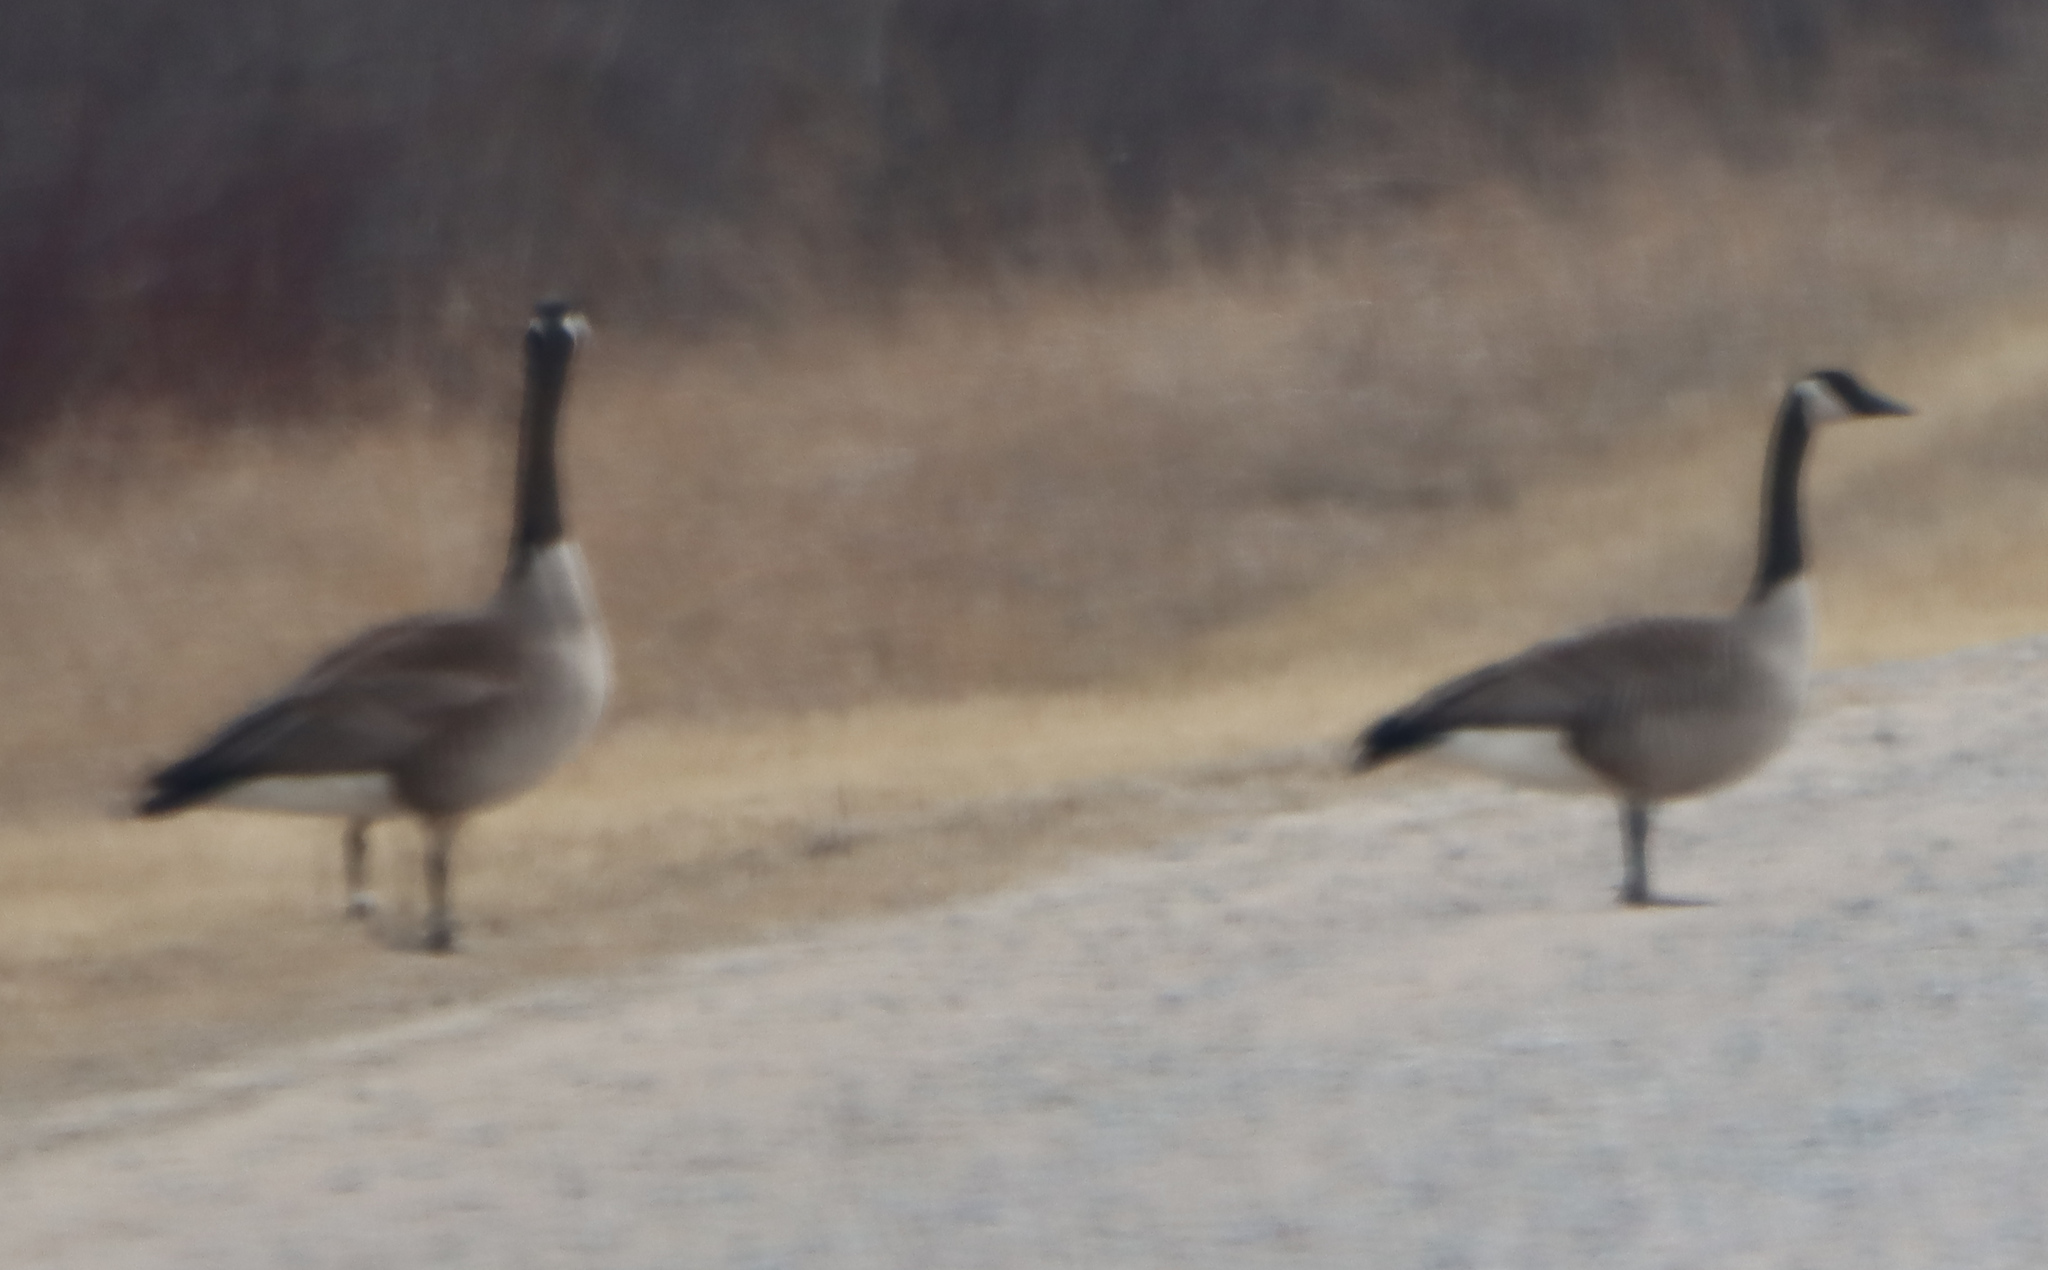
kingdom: Animalia
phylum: Chordata
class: Aves
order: Anseriformes
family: Anatidae
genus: Branta
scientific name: Branta canadensis
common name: Canada goose
